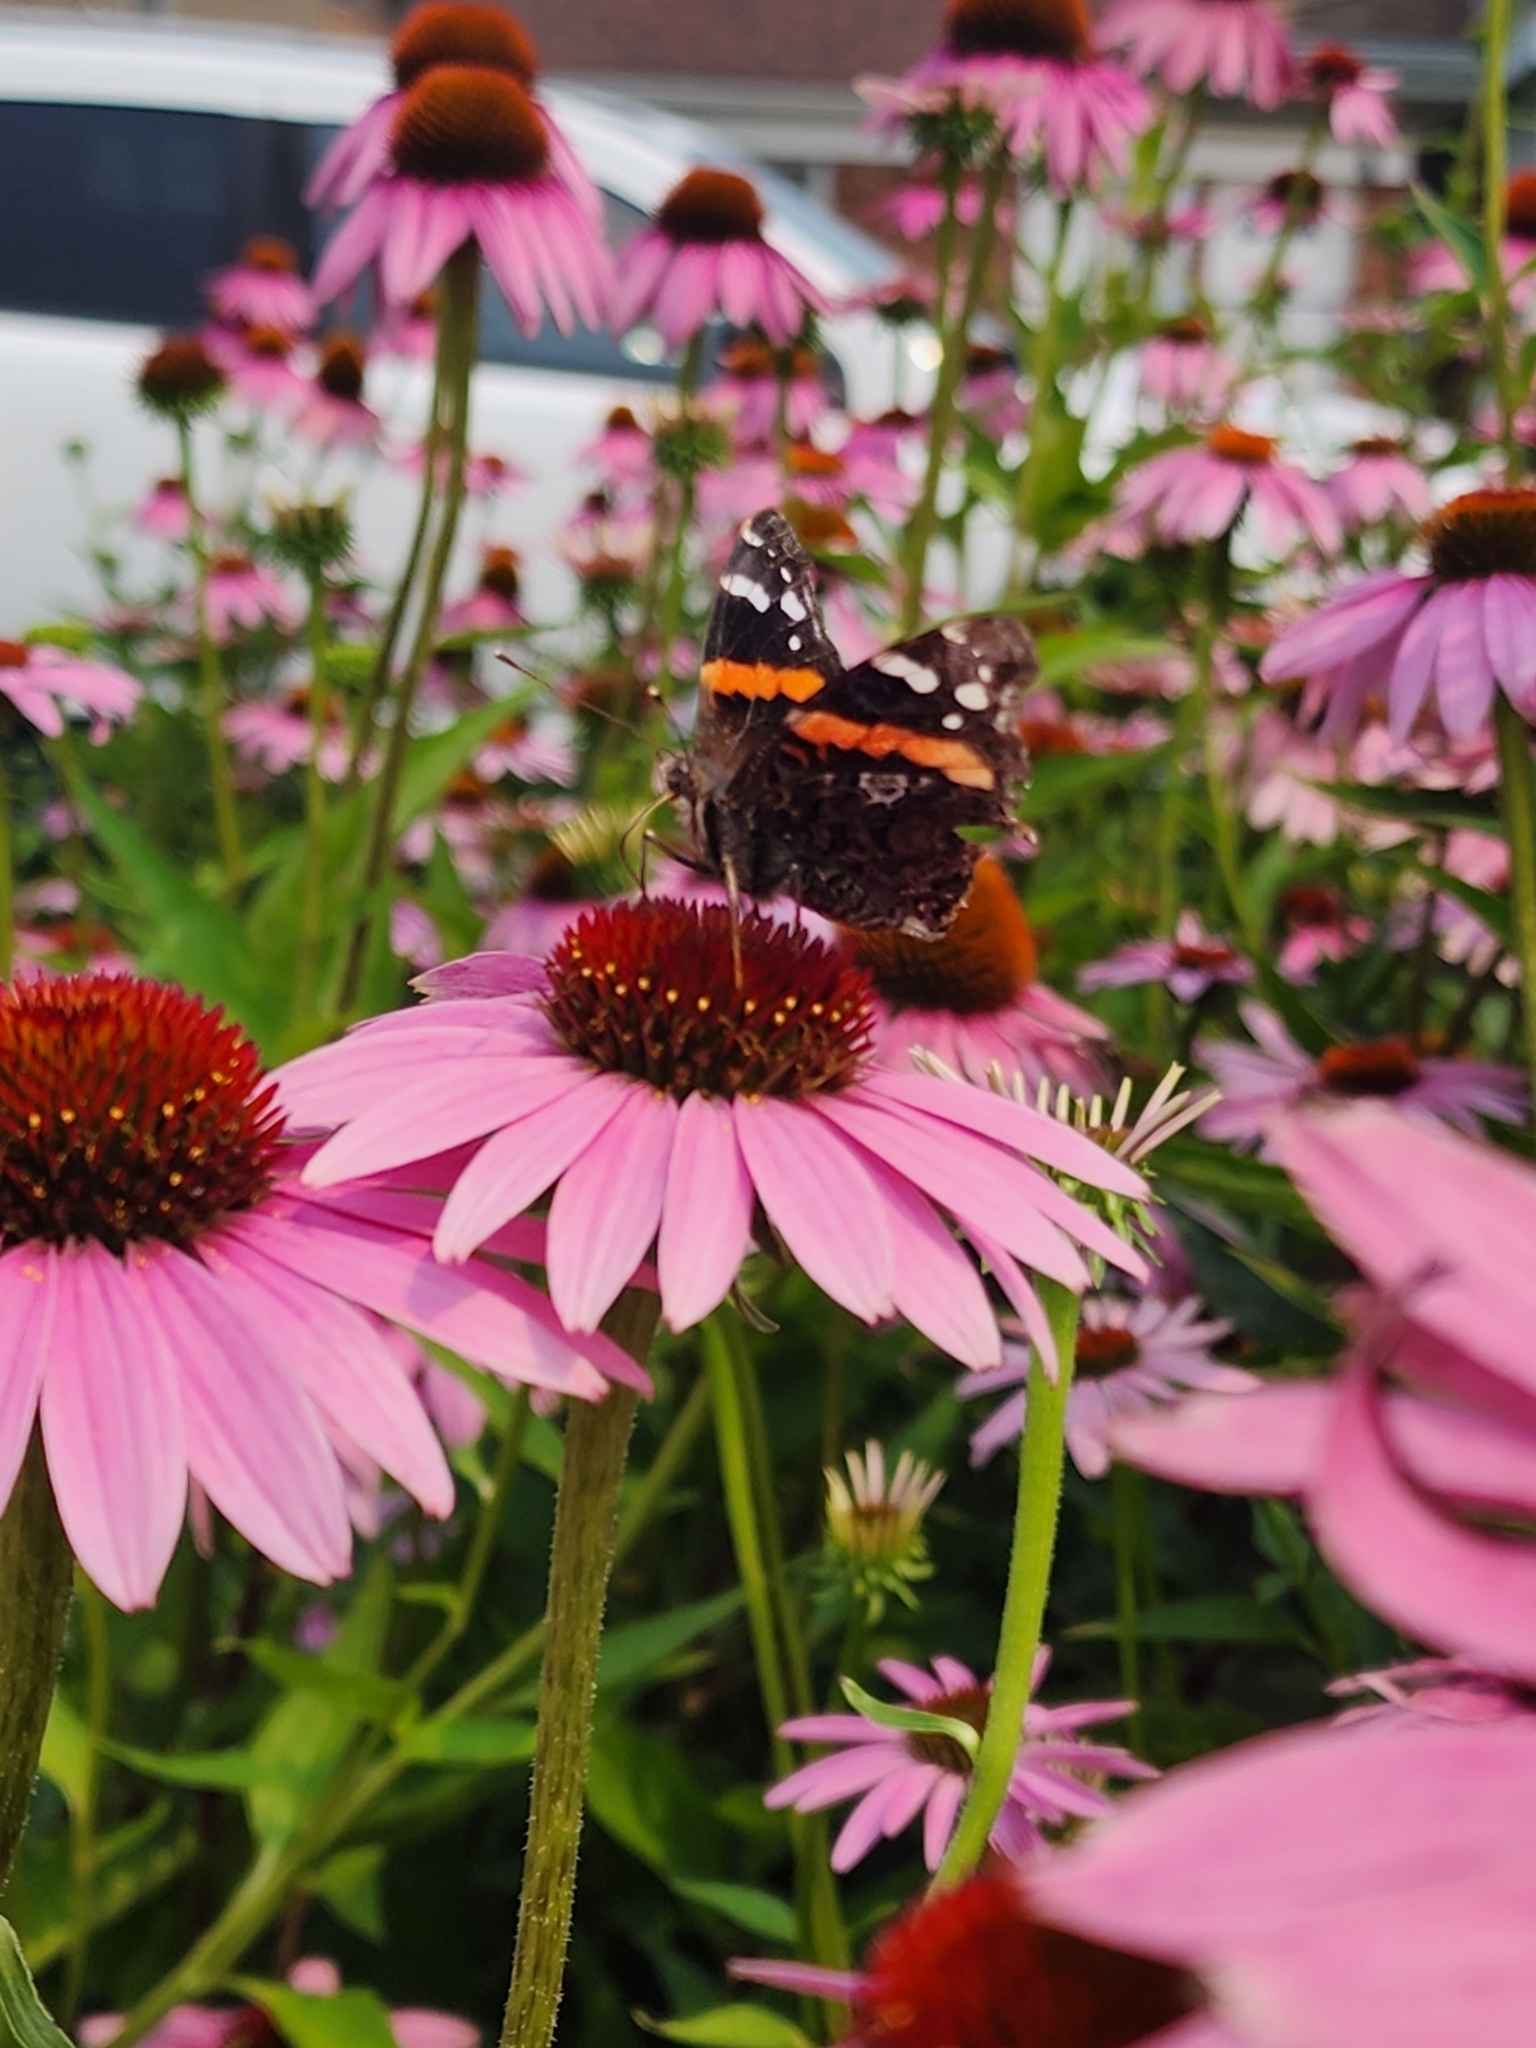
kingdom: Animalia
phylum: Arthropoda
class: Insecta
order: Lepidoptera
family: Nymphalidae
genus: Vanessa
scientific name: Vanessa atalanta
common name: Red admiral
